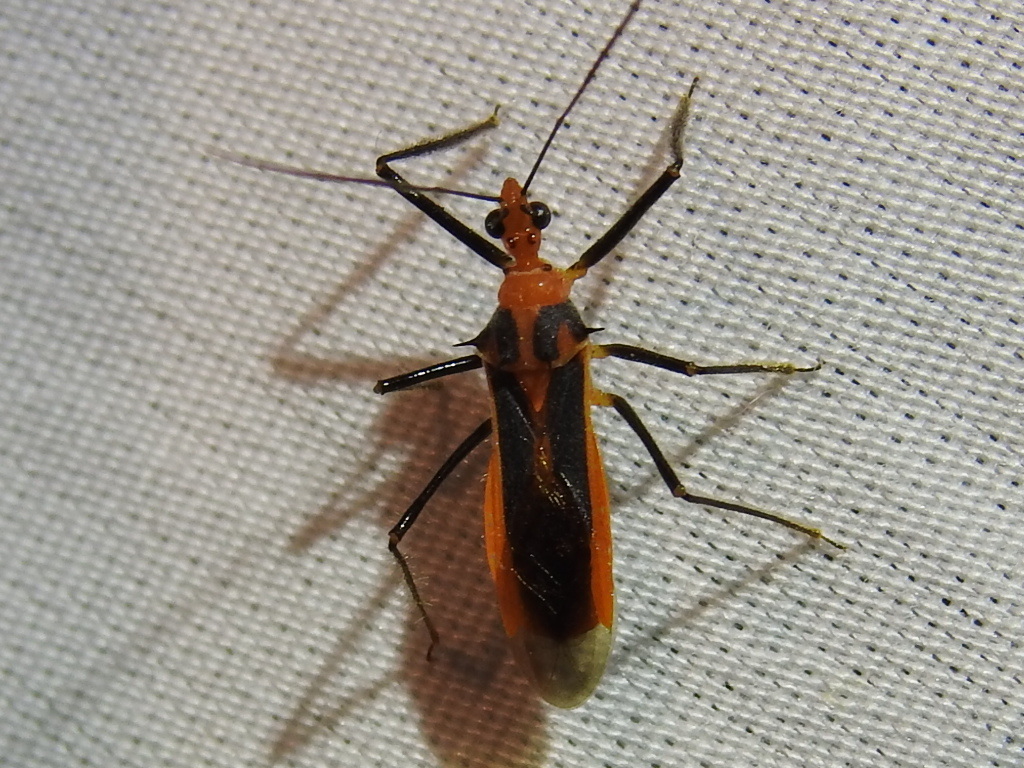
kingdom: Animalia
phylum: Arthropoda
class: Insecta
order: Hemiptera
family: Reduviidae
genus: Repipta
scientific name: Repipta taurus
